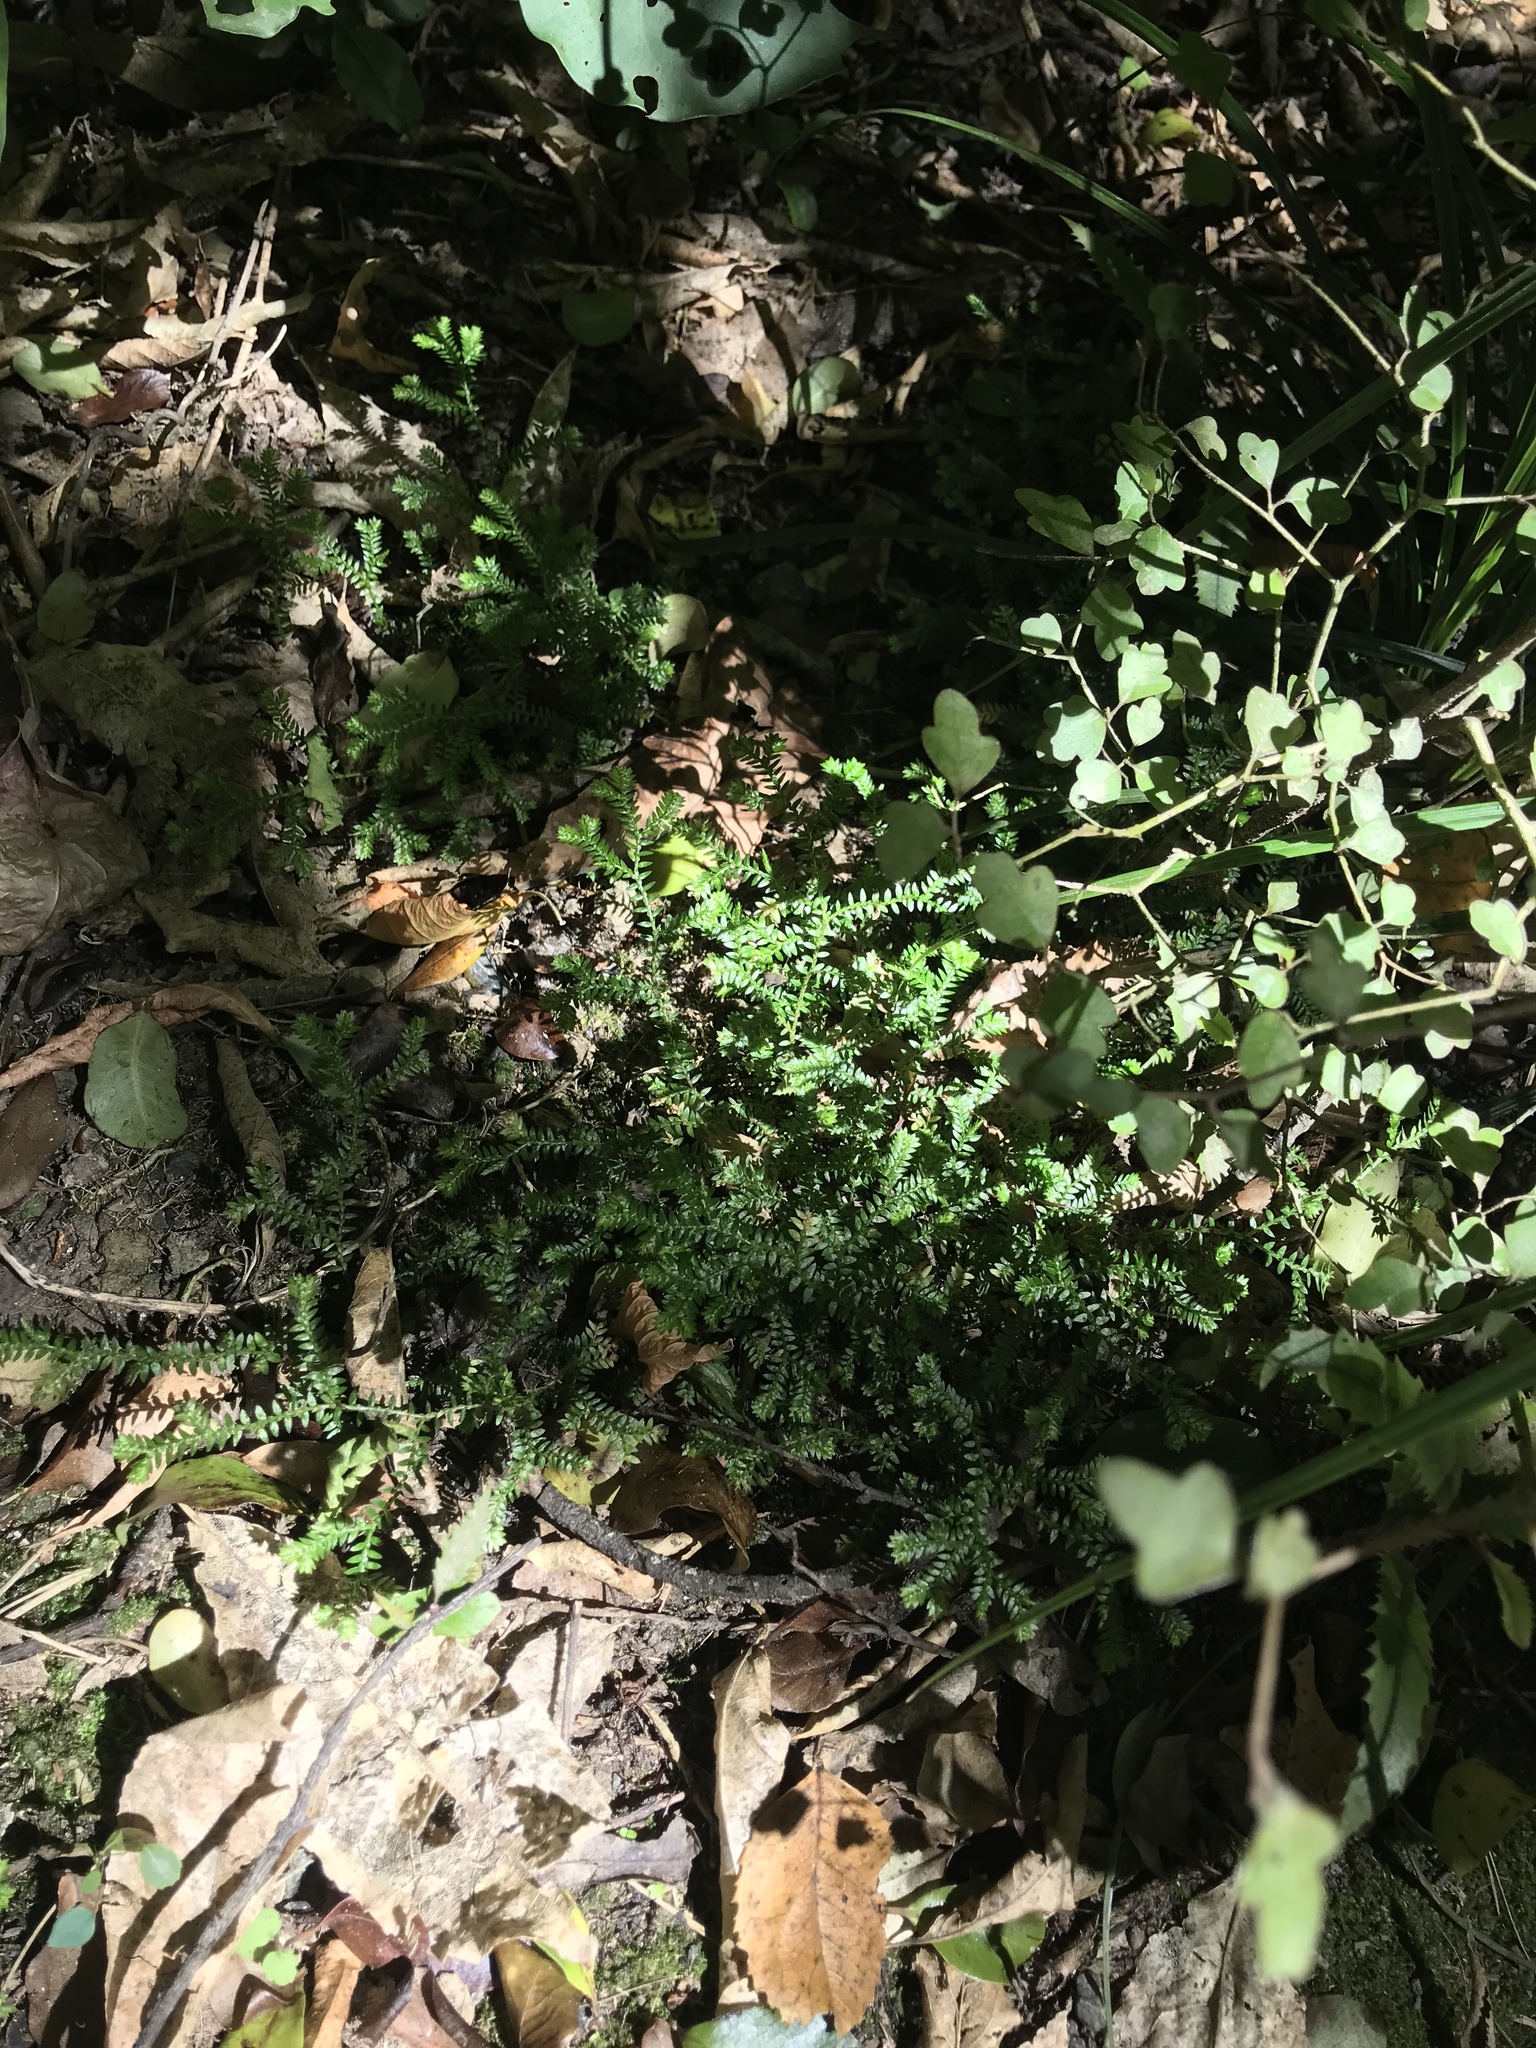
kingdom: Plantae
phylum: Tracheophyta
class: Lycopodiopsida
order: Selaginellales
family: Selaginellaceae
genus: Selaginella
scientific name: Selaginella kraussiana
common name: Krauss' spikemoss
